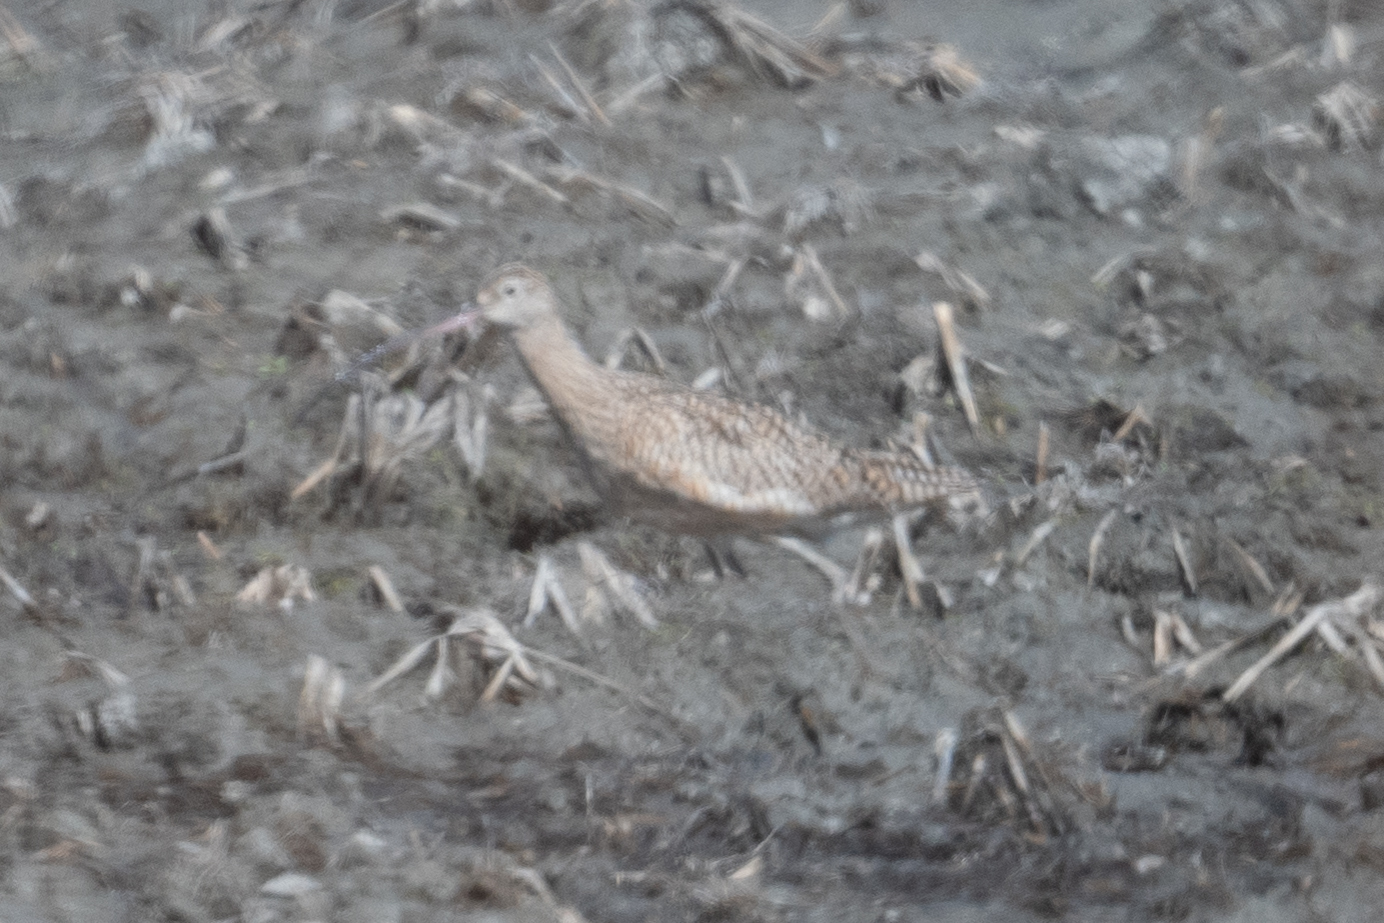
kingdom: Animalia
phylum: Chordata
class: Aves
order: Charadriiformes
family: Scolopacidae
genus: Numenius
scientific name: Numenius americanus
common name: Long-billed curlew
